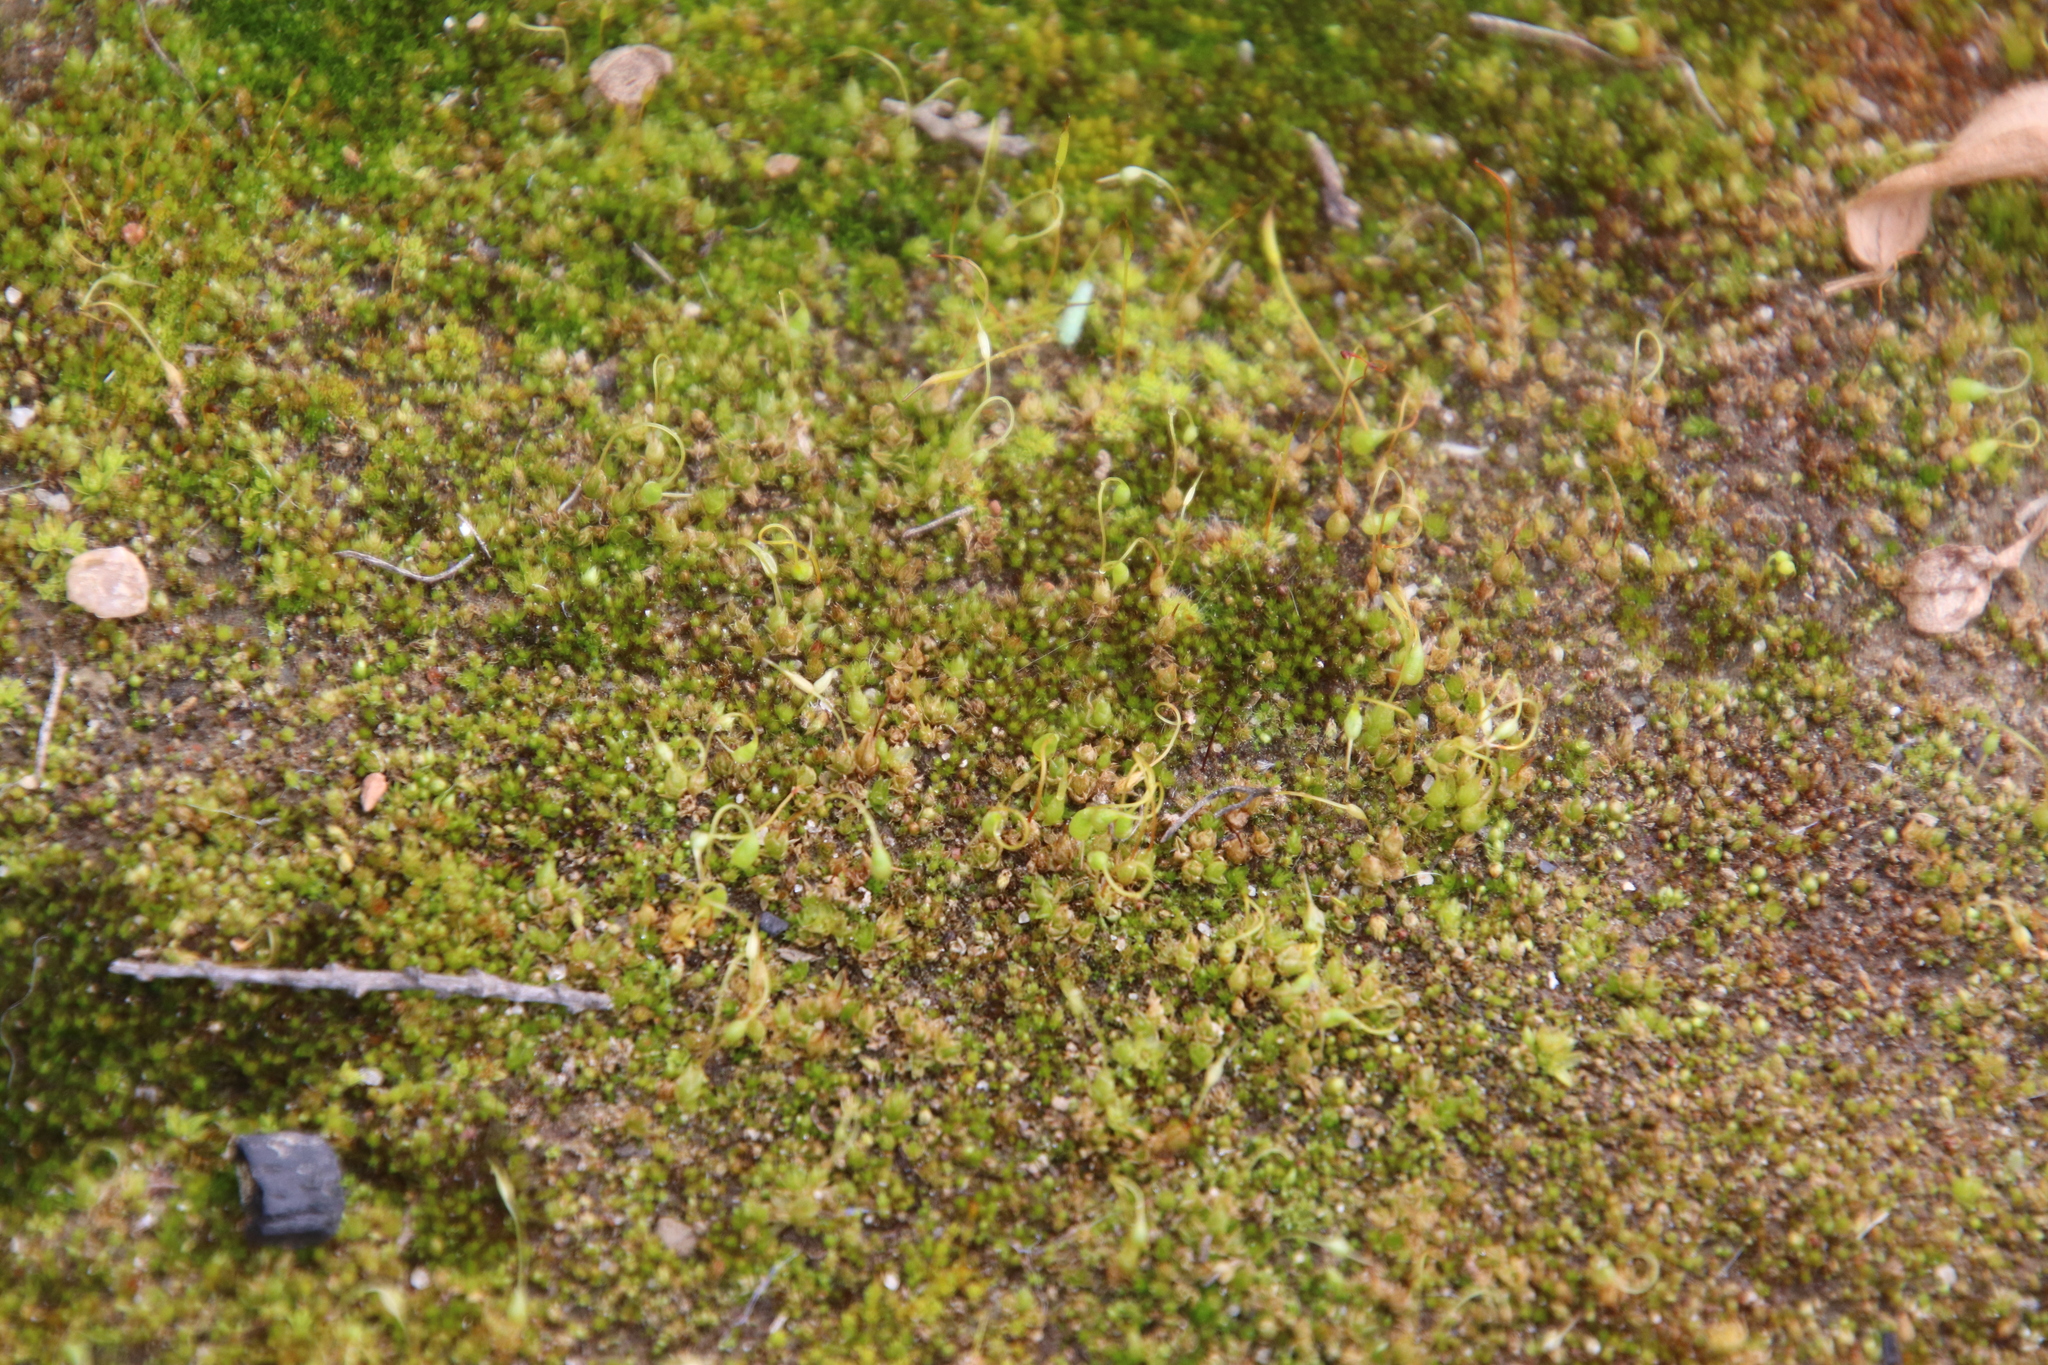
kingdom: Plantae
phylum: Bryophyta
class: Bryopsida
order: Funariales
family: Funariaceae
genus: Funaria
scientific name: Funaria hygrometrica
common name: Common cord moss
